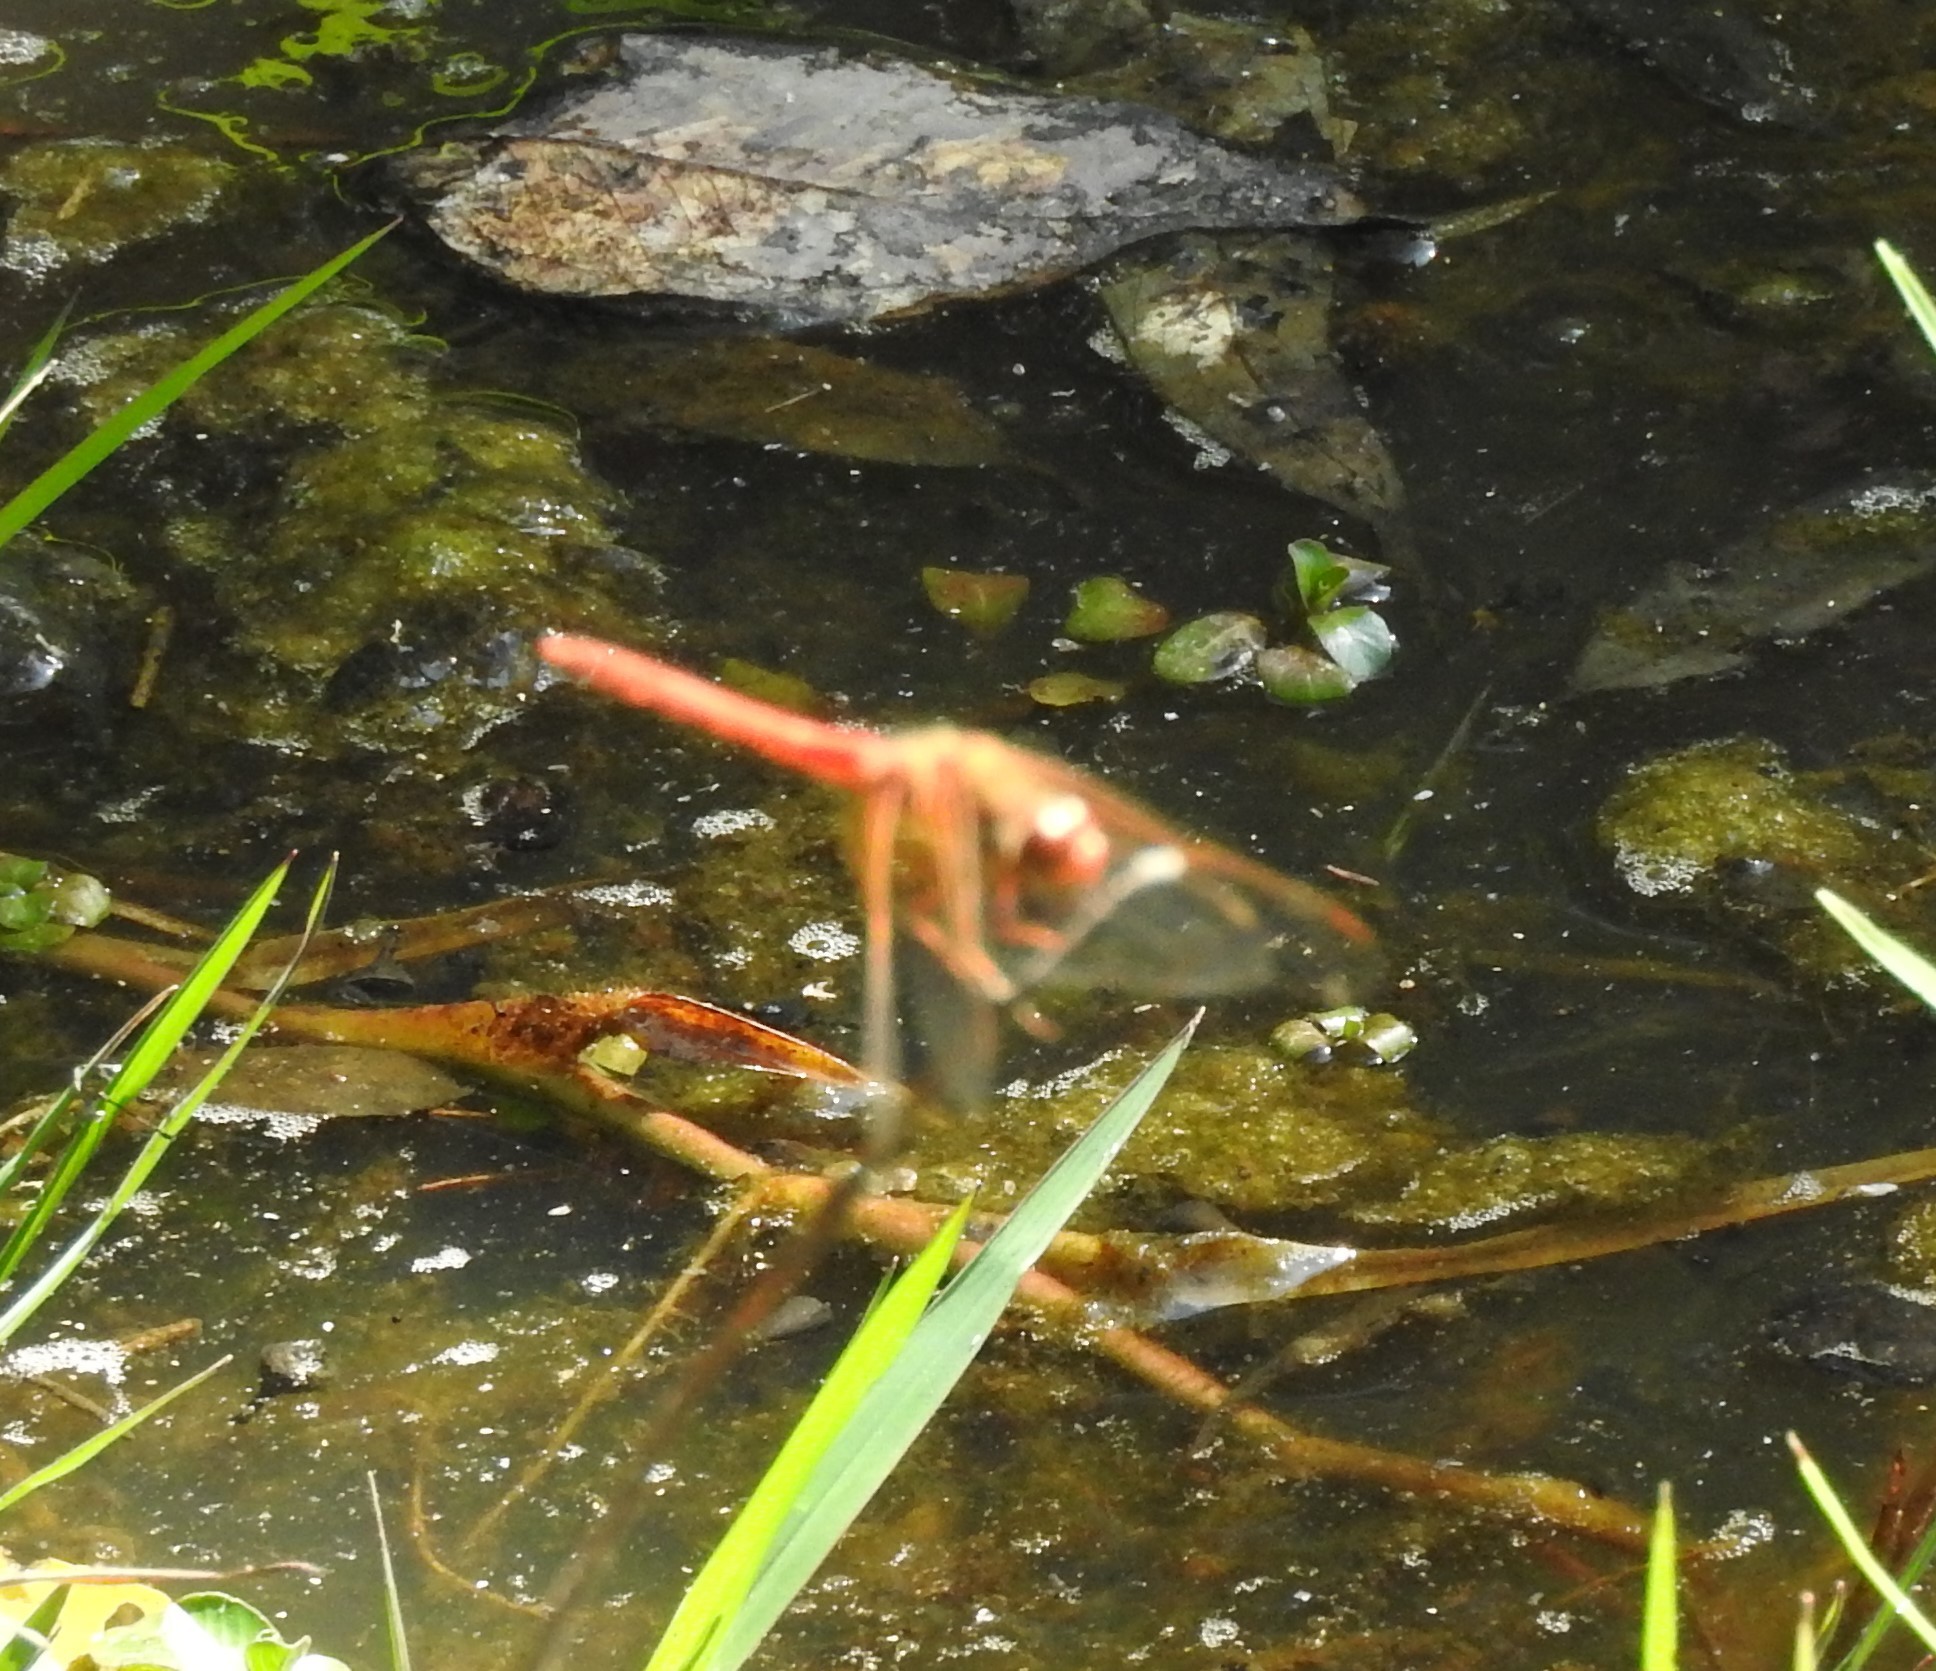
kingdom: Animalia
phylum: Arthropoda
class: Insecta
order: Odonata
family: Libellulidae
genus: Sympetrum
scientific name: Sympetrum illotum
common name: Cardinal meadowhawk
